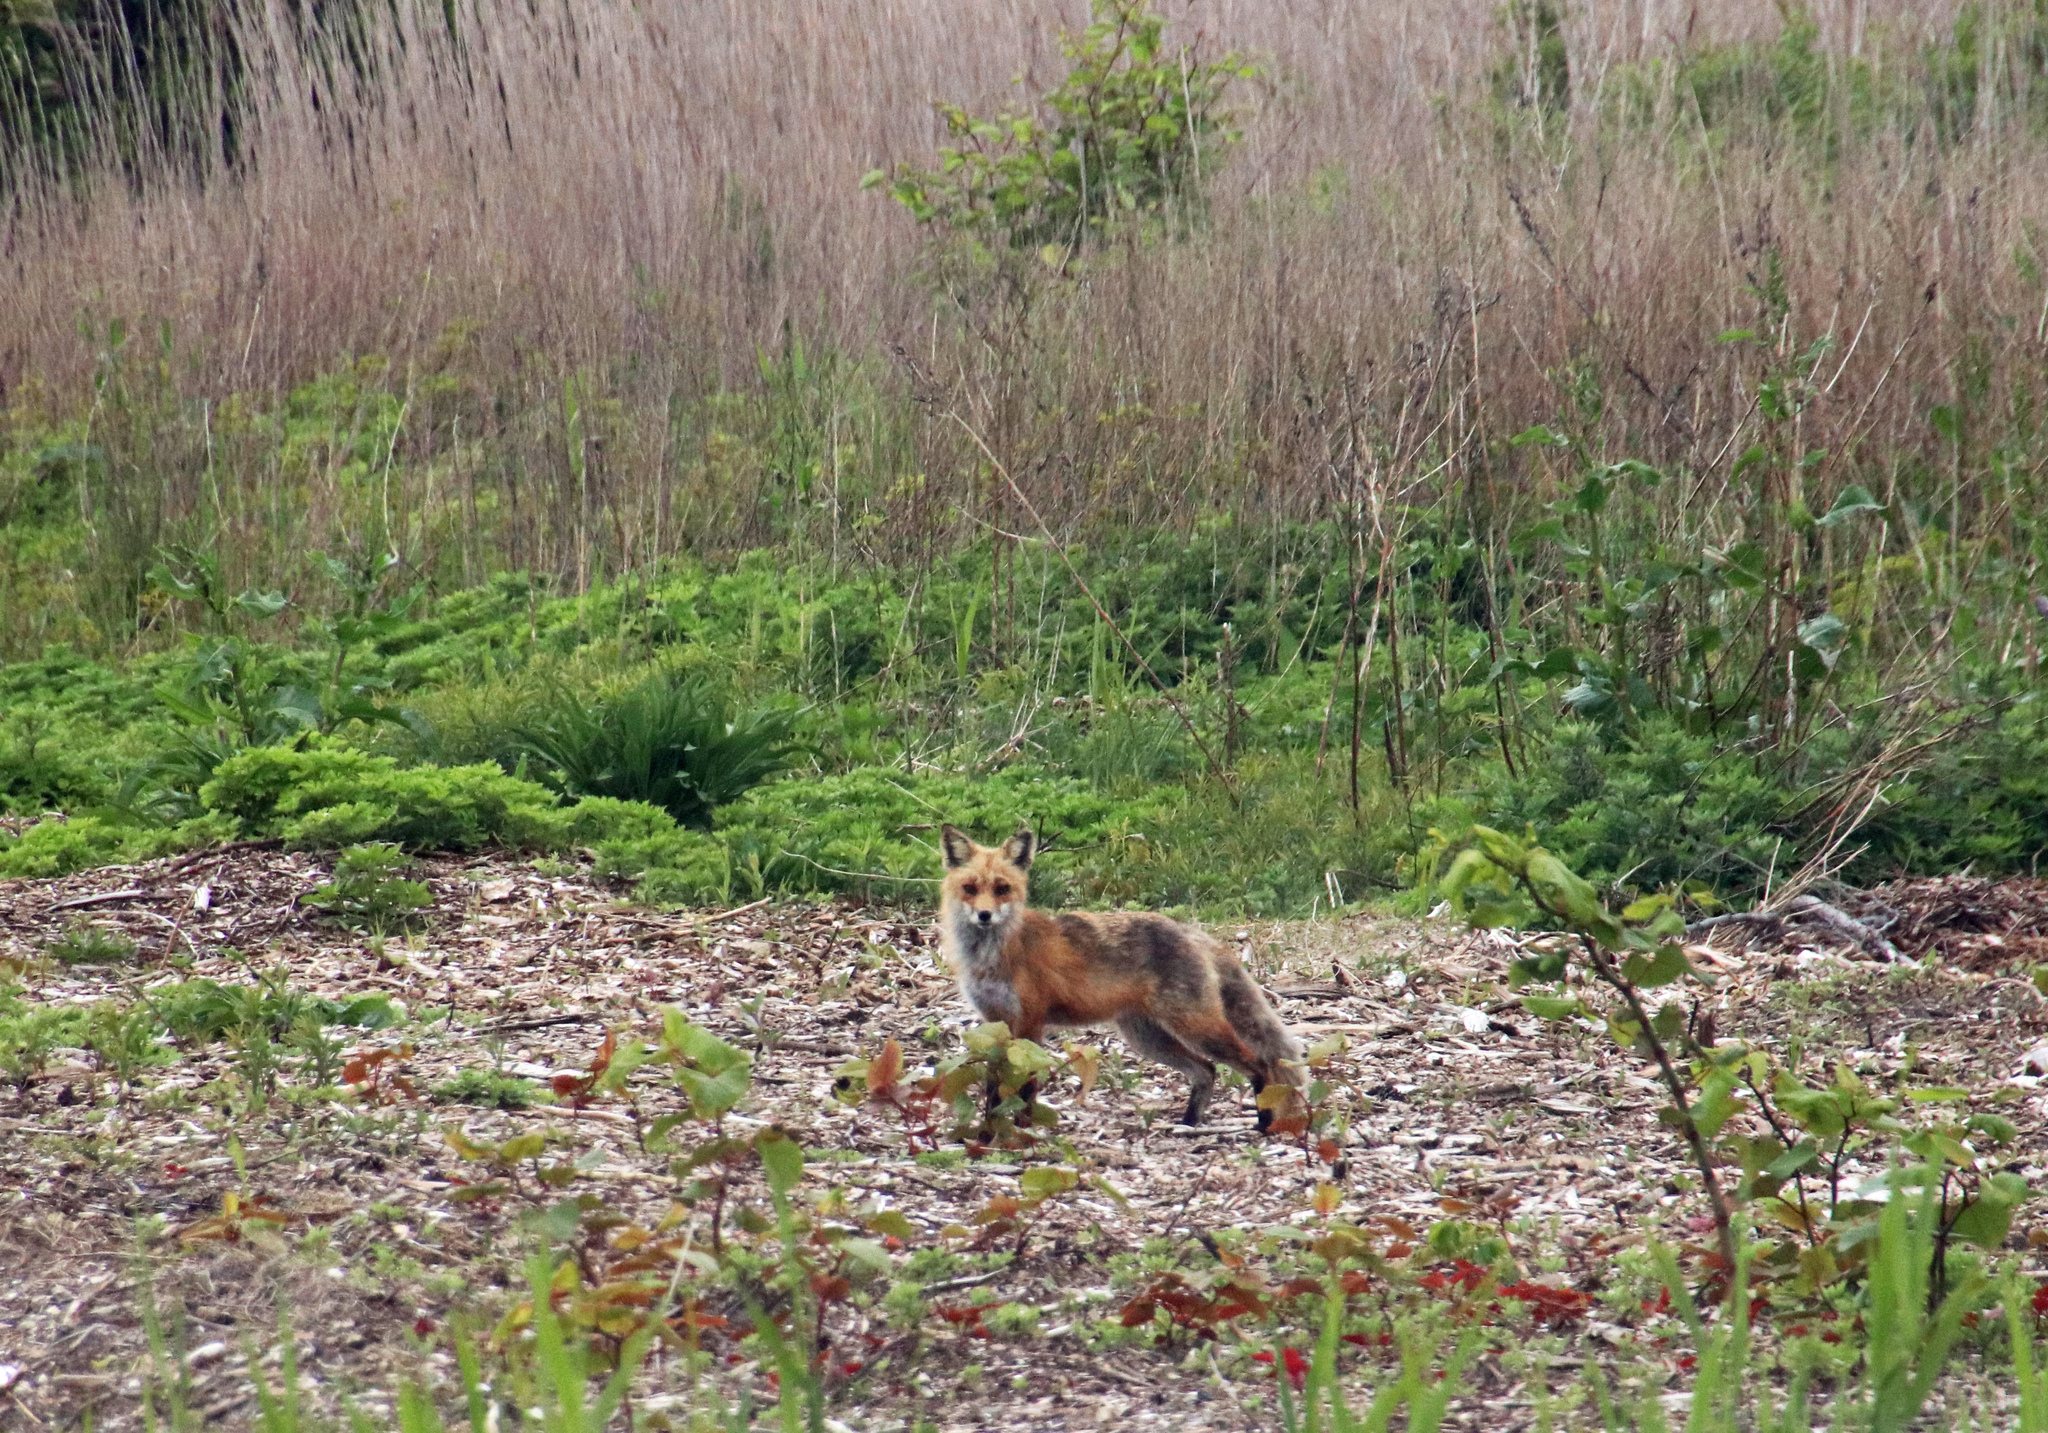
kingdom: Animalia
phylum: Chordata
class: Mammalia
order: Carnivora
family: Canidae
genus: Vulpes
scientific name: Vulpes vulpes
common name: Red fox
